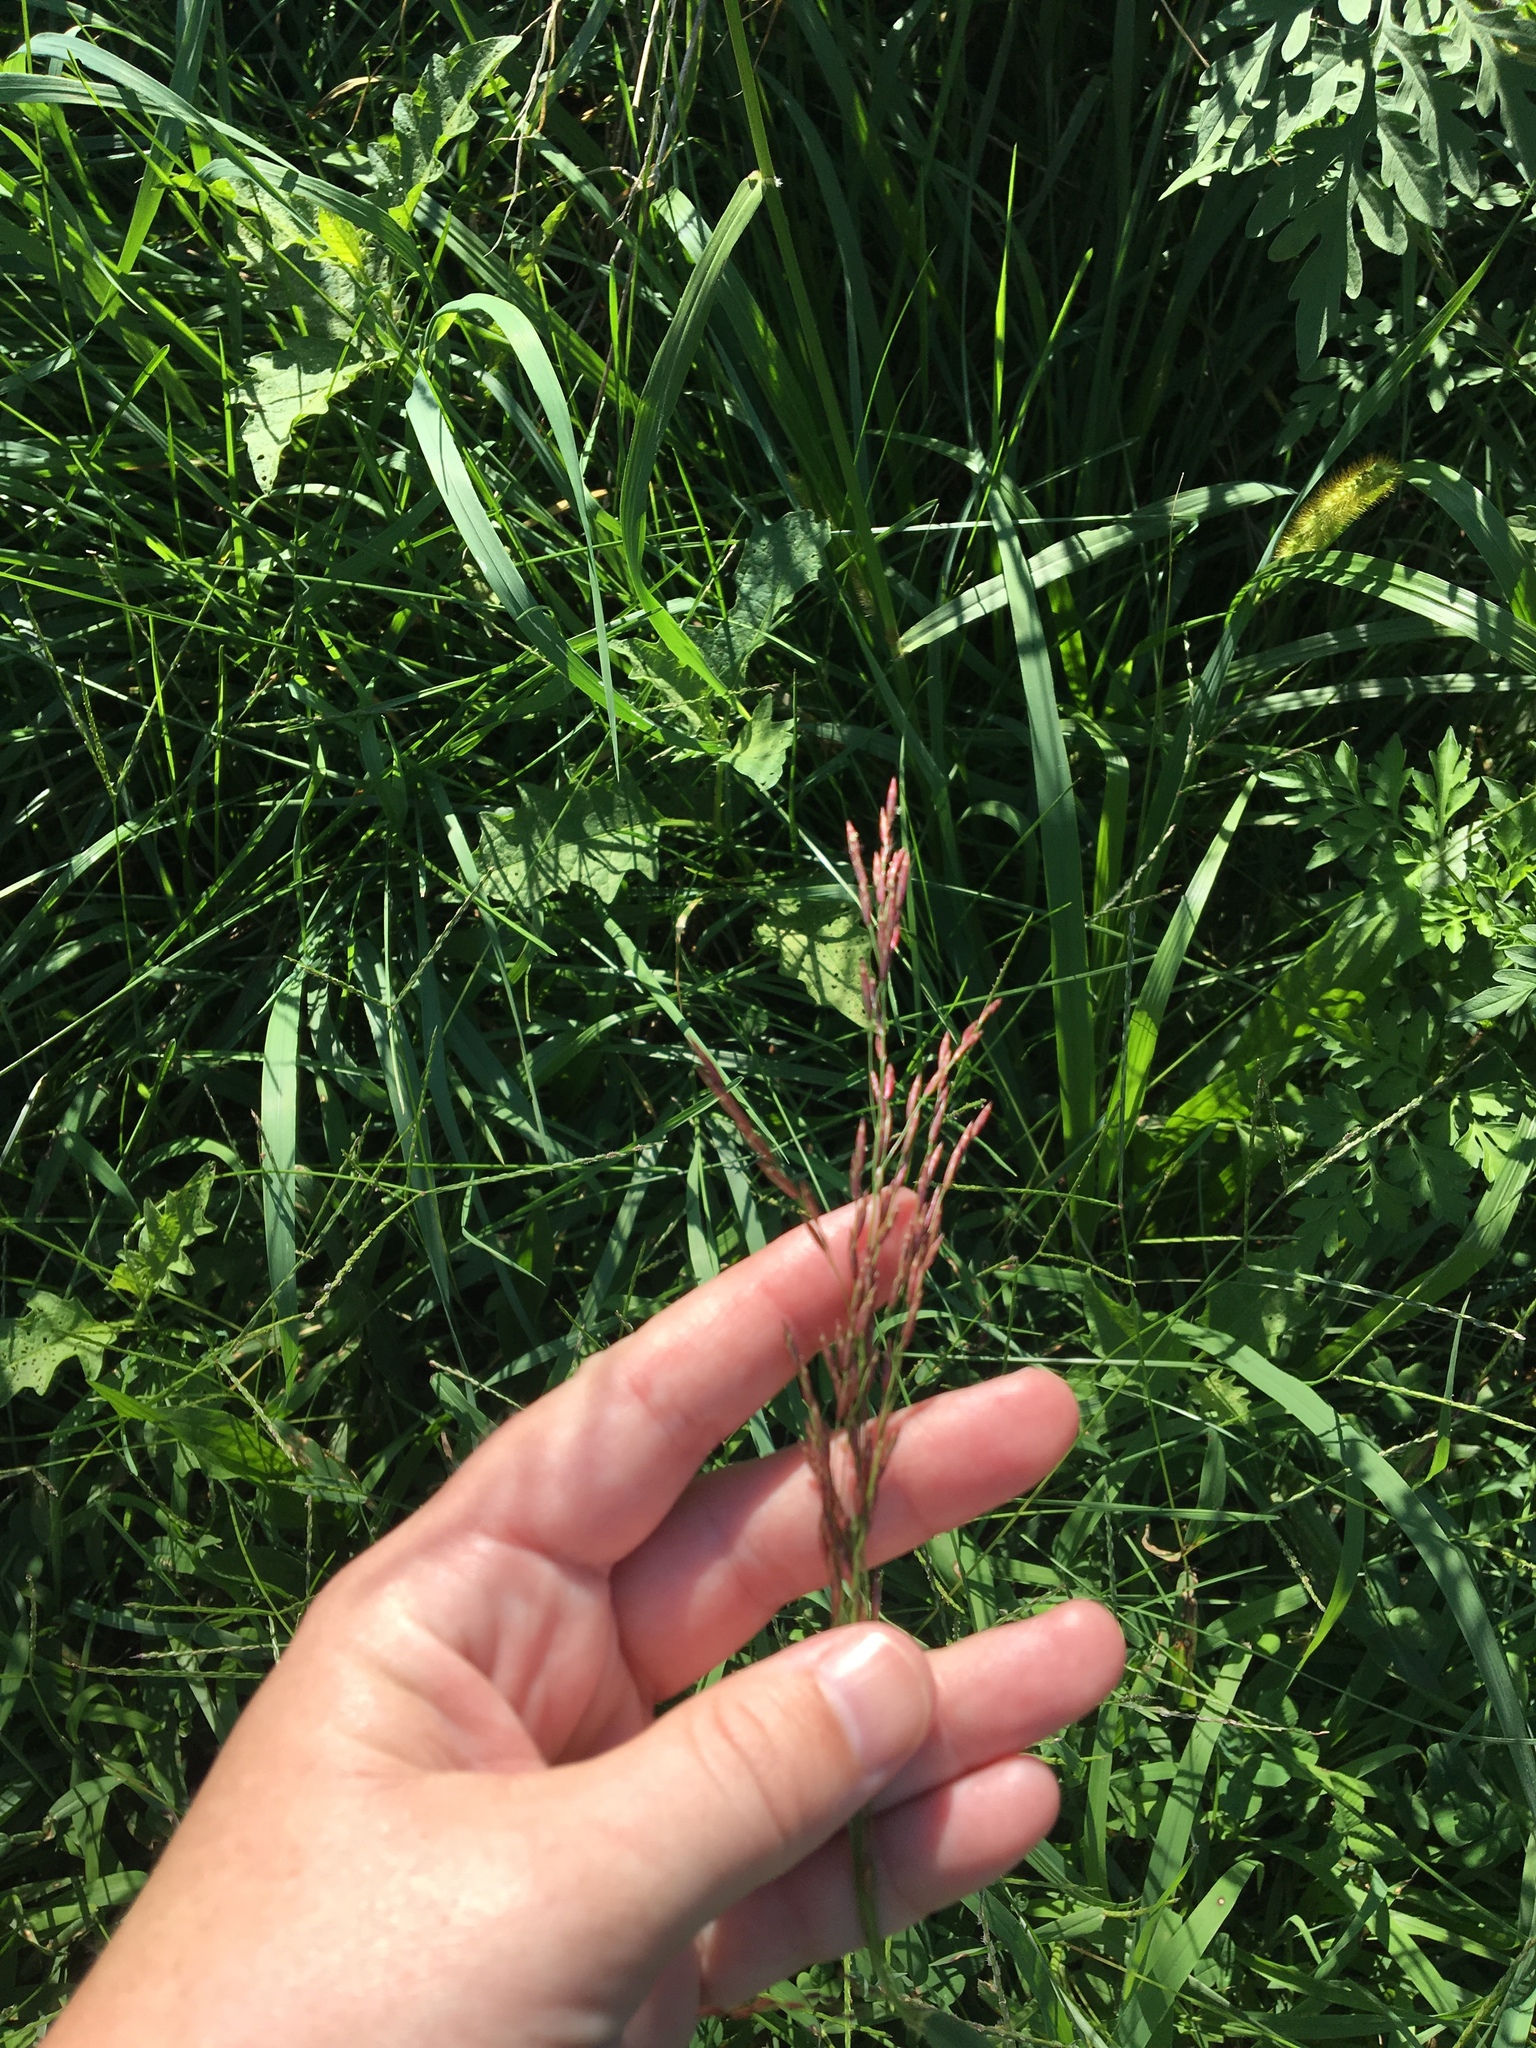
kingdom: Plantae
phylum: Tracheophyta
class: Liliopsida
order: Poales
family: Poaceae
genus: Tridens
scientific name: Tridens flavus
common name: Purpletop
